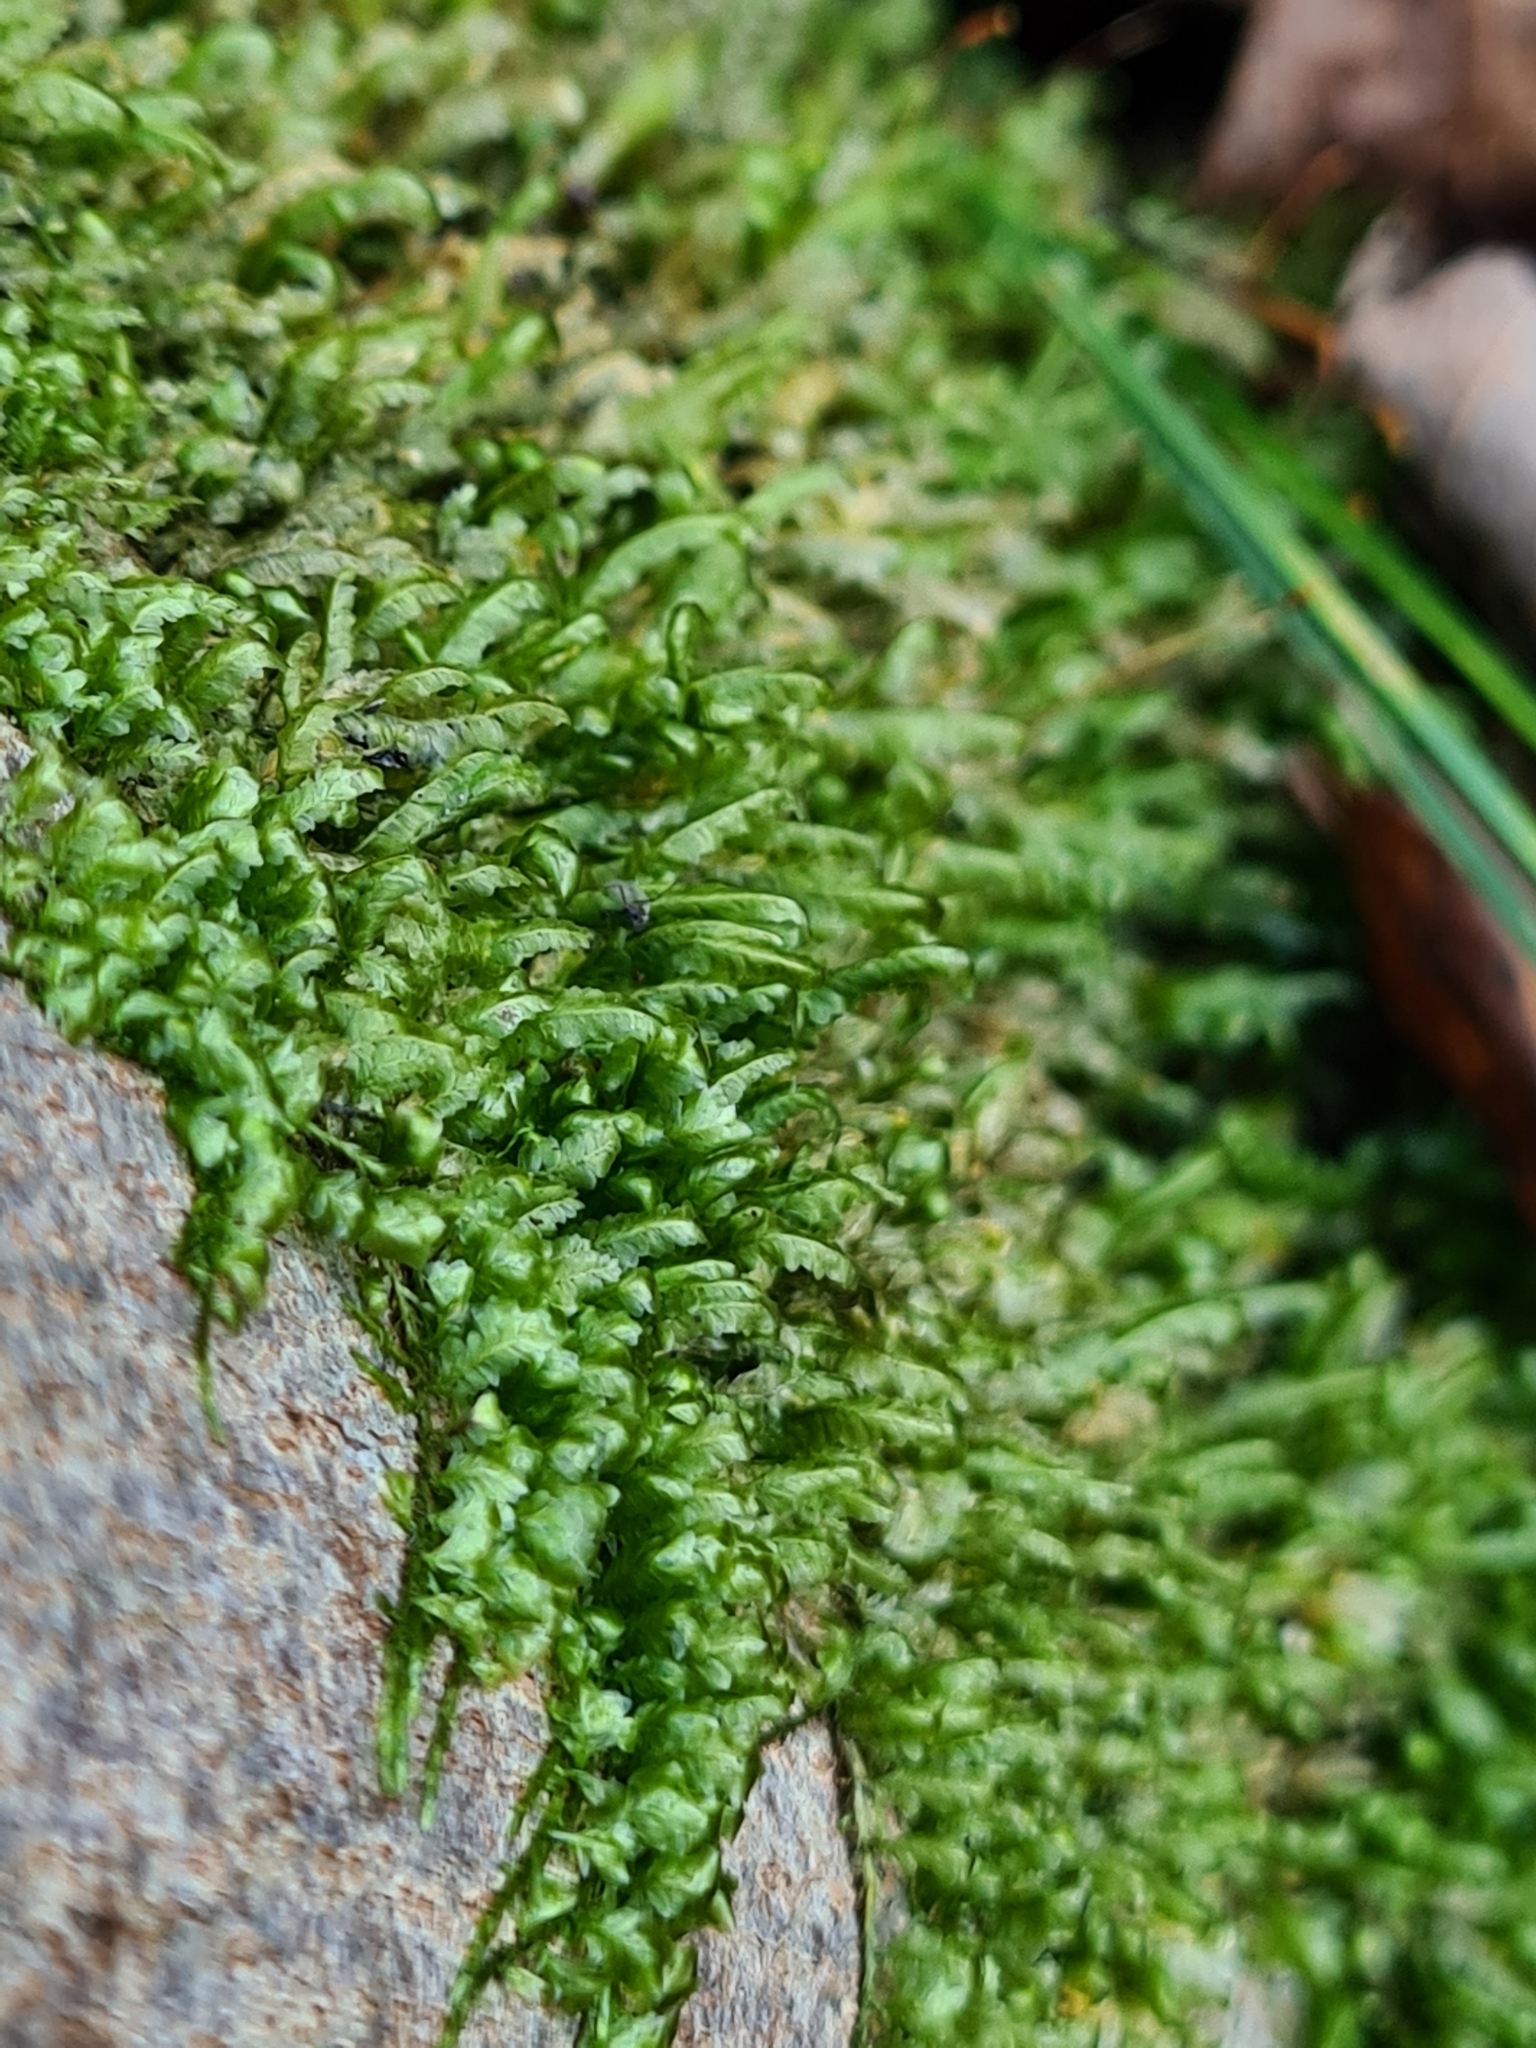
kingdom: Plantae
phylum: Bryophyta
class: Bryopsida
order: Hypnales
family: Neckeraceae
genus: Homalia
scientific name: Homalia trichomanoides
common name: Lime homalia moss
